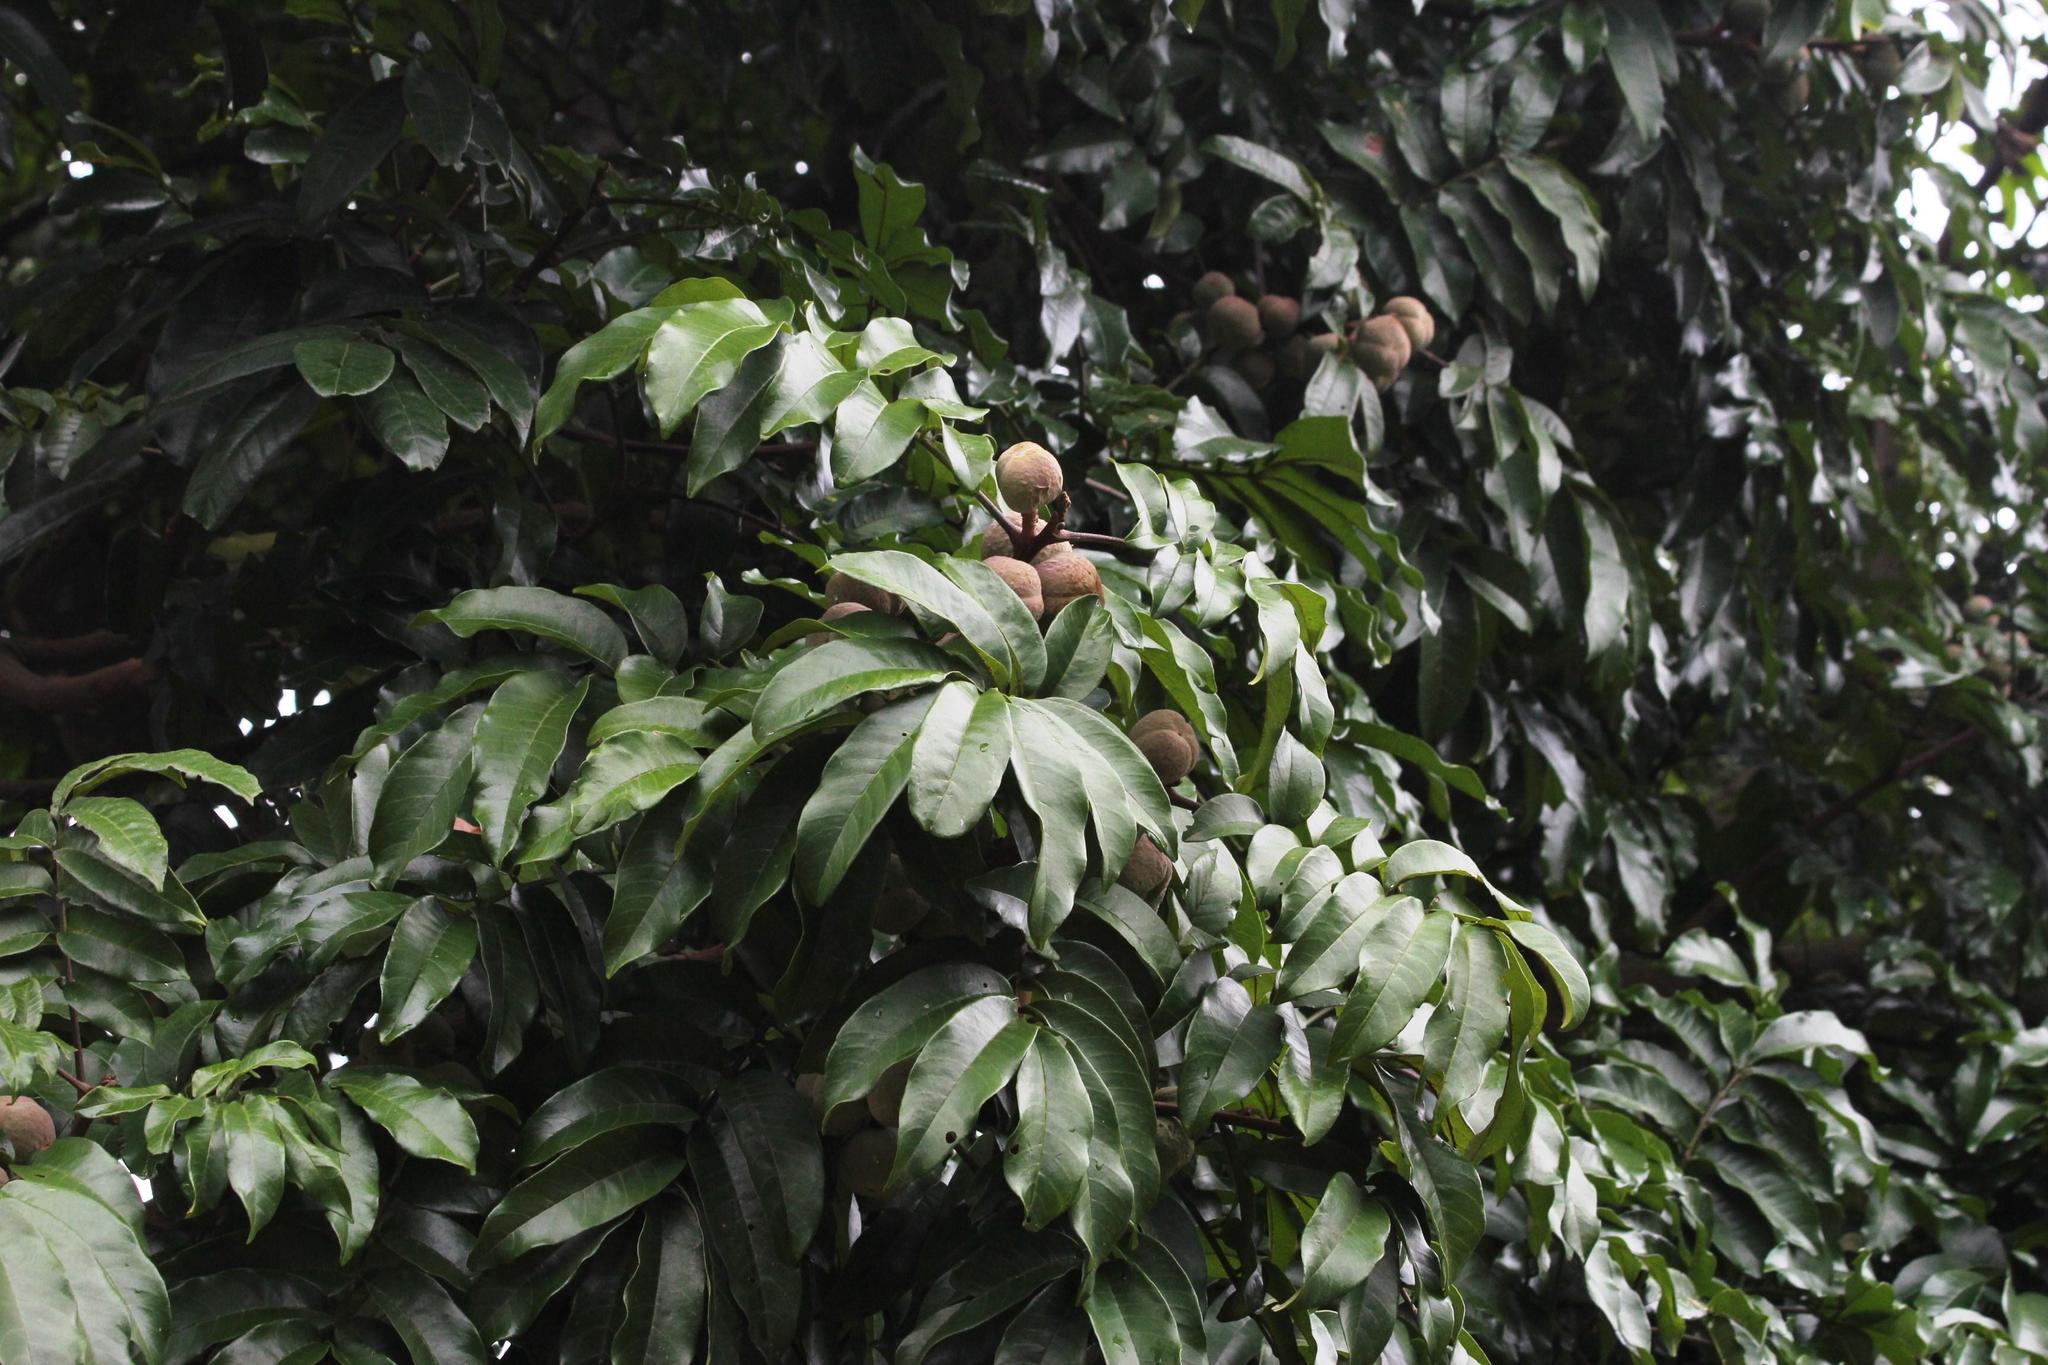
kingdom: Plantae
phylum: Tracheophyta
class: Magnoliopsida
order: Sapindales
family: Meliaceae
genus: Trichilia
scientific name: Trichilia dregeana
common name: Christmas-bells
